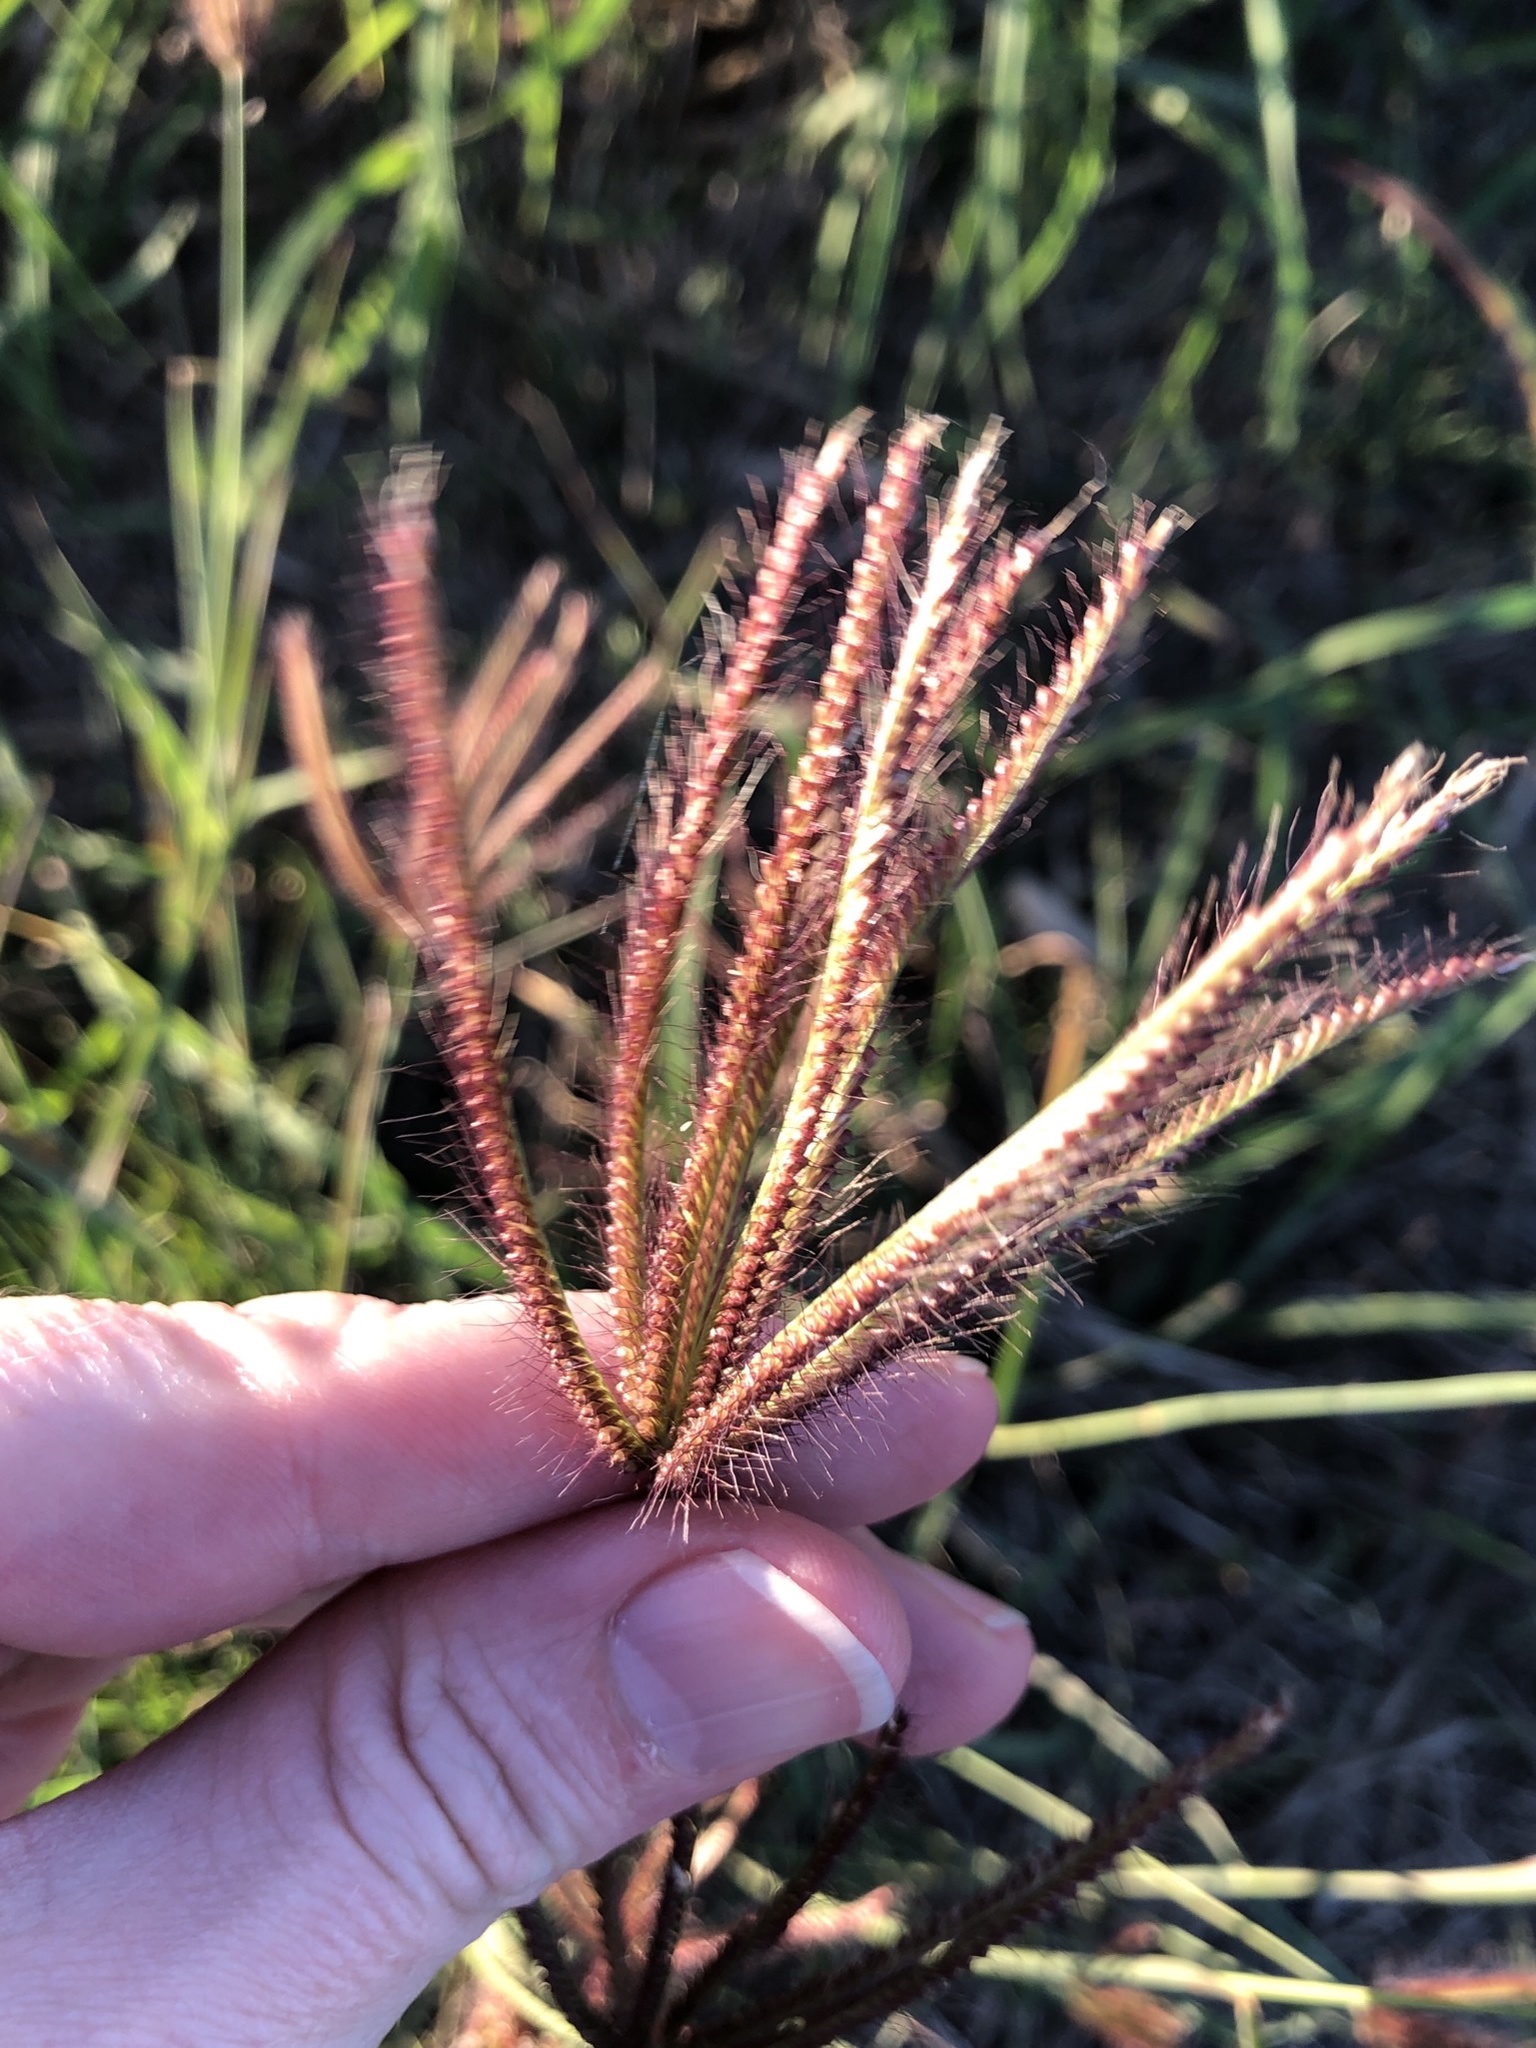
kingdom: Plantae
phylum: Tracheophyta
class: Liliopsida
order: Poales
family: Poaceae
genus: Chloris
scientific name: Chloris barbata
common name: Swollen fingergrass
